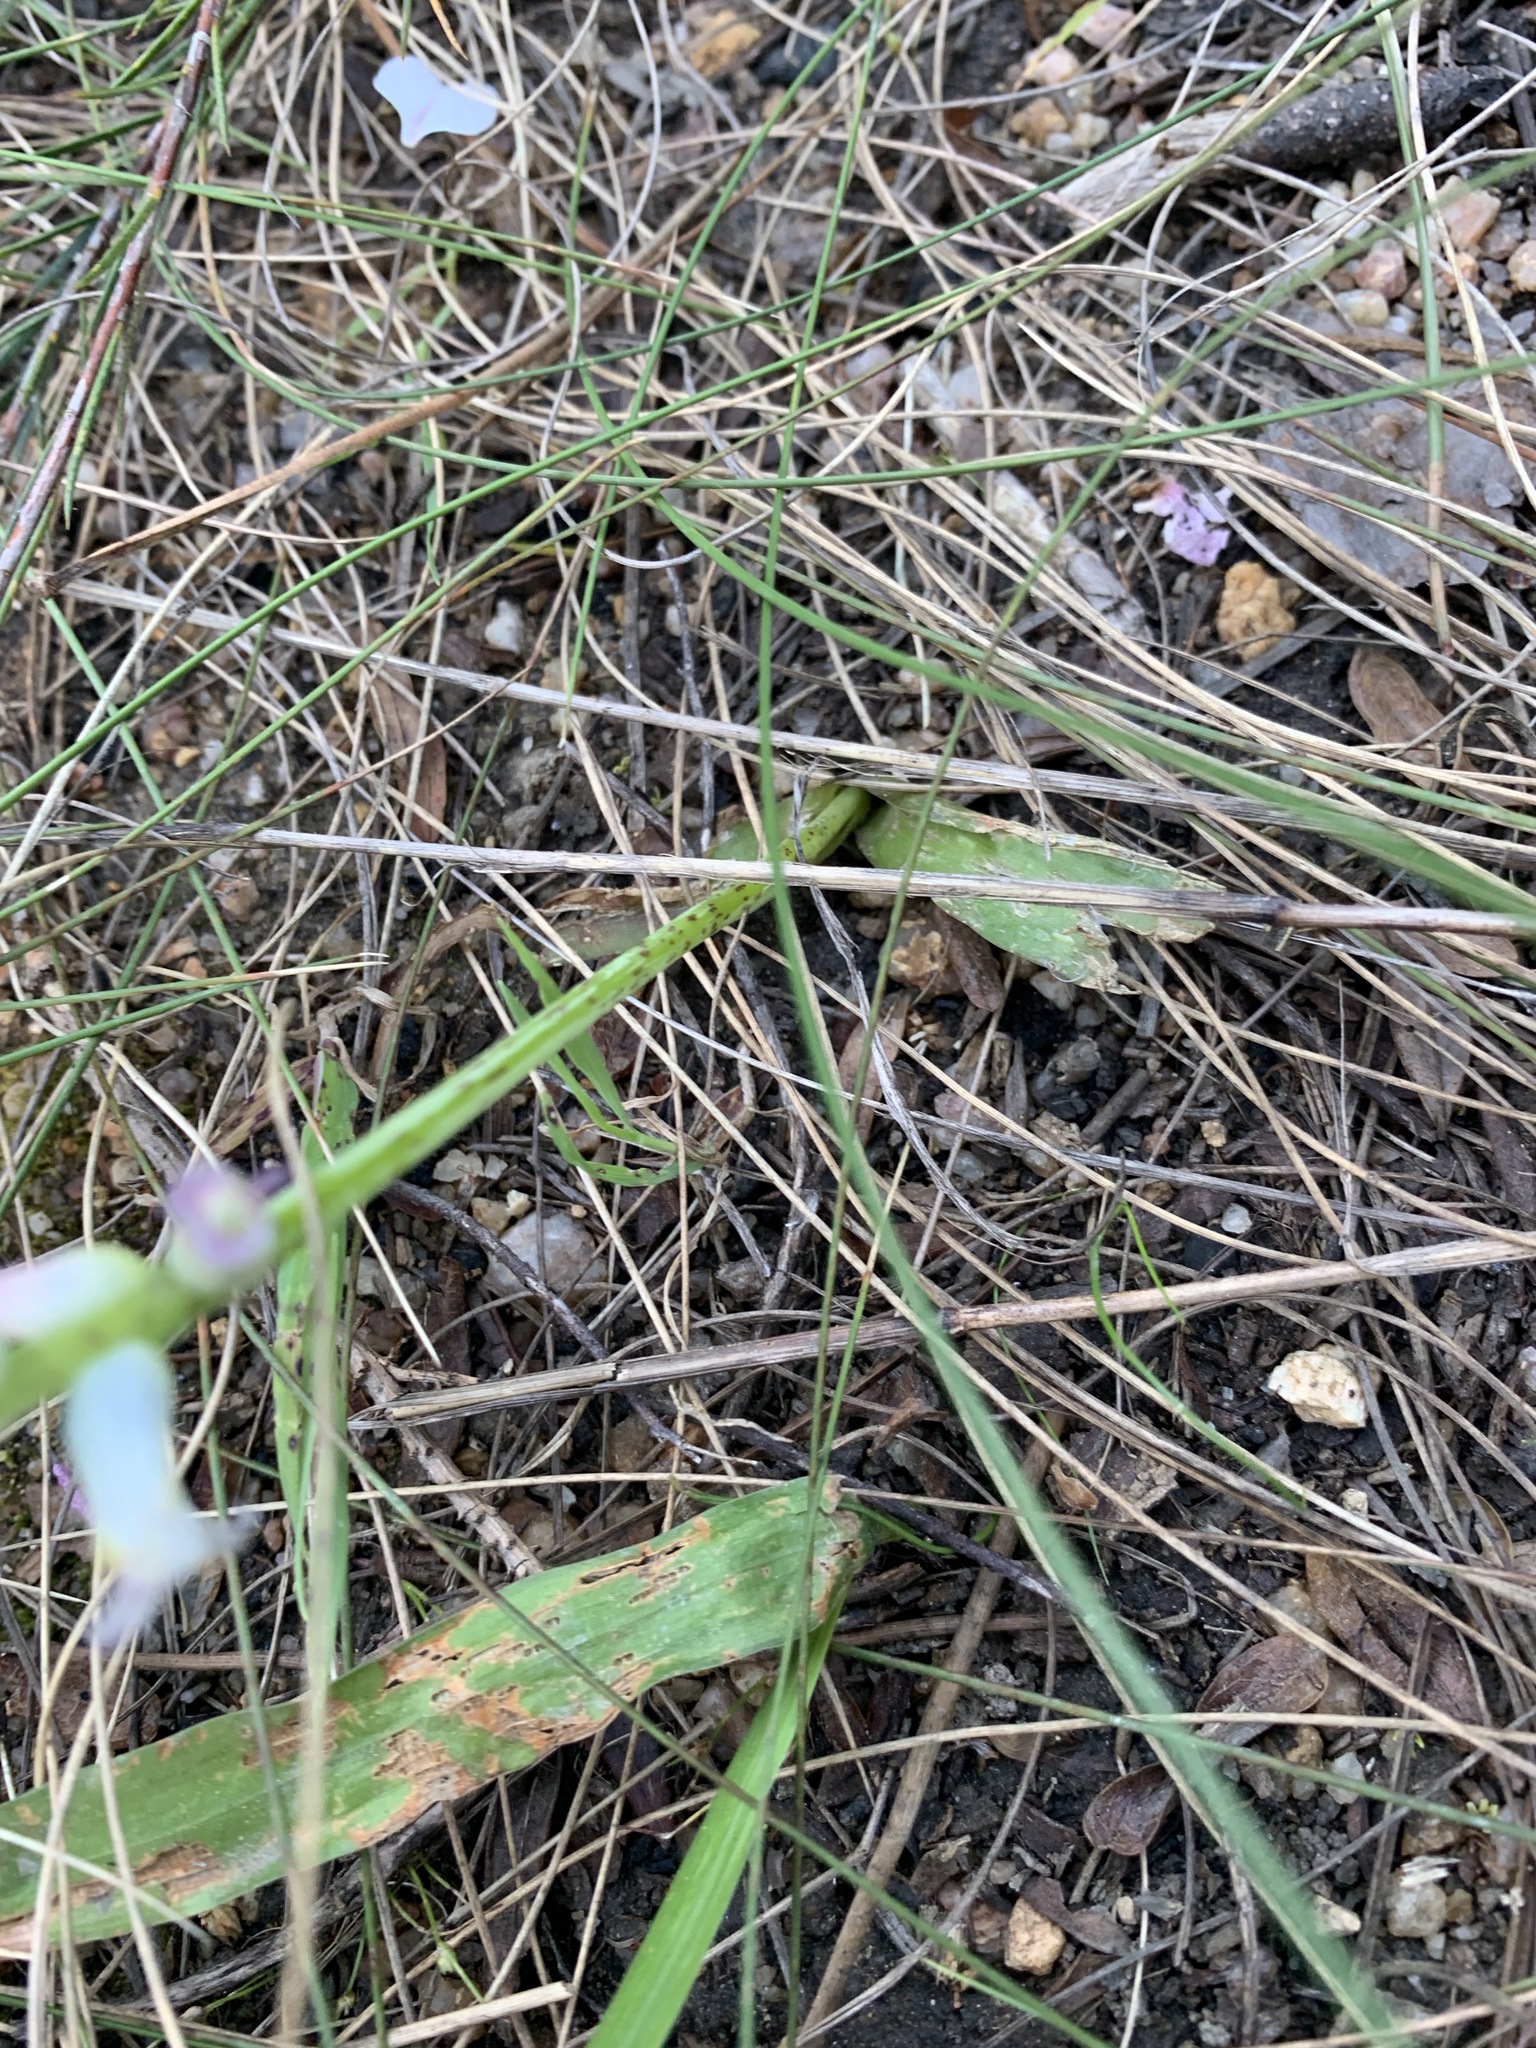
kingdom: Plantae
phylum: Tracheophyta
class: Liliopsida
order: Asparagales
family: Asparagaceae
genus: Lachenalia
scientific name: Lachenalia fistulosa
